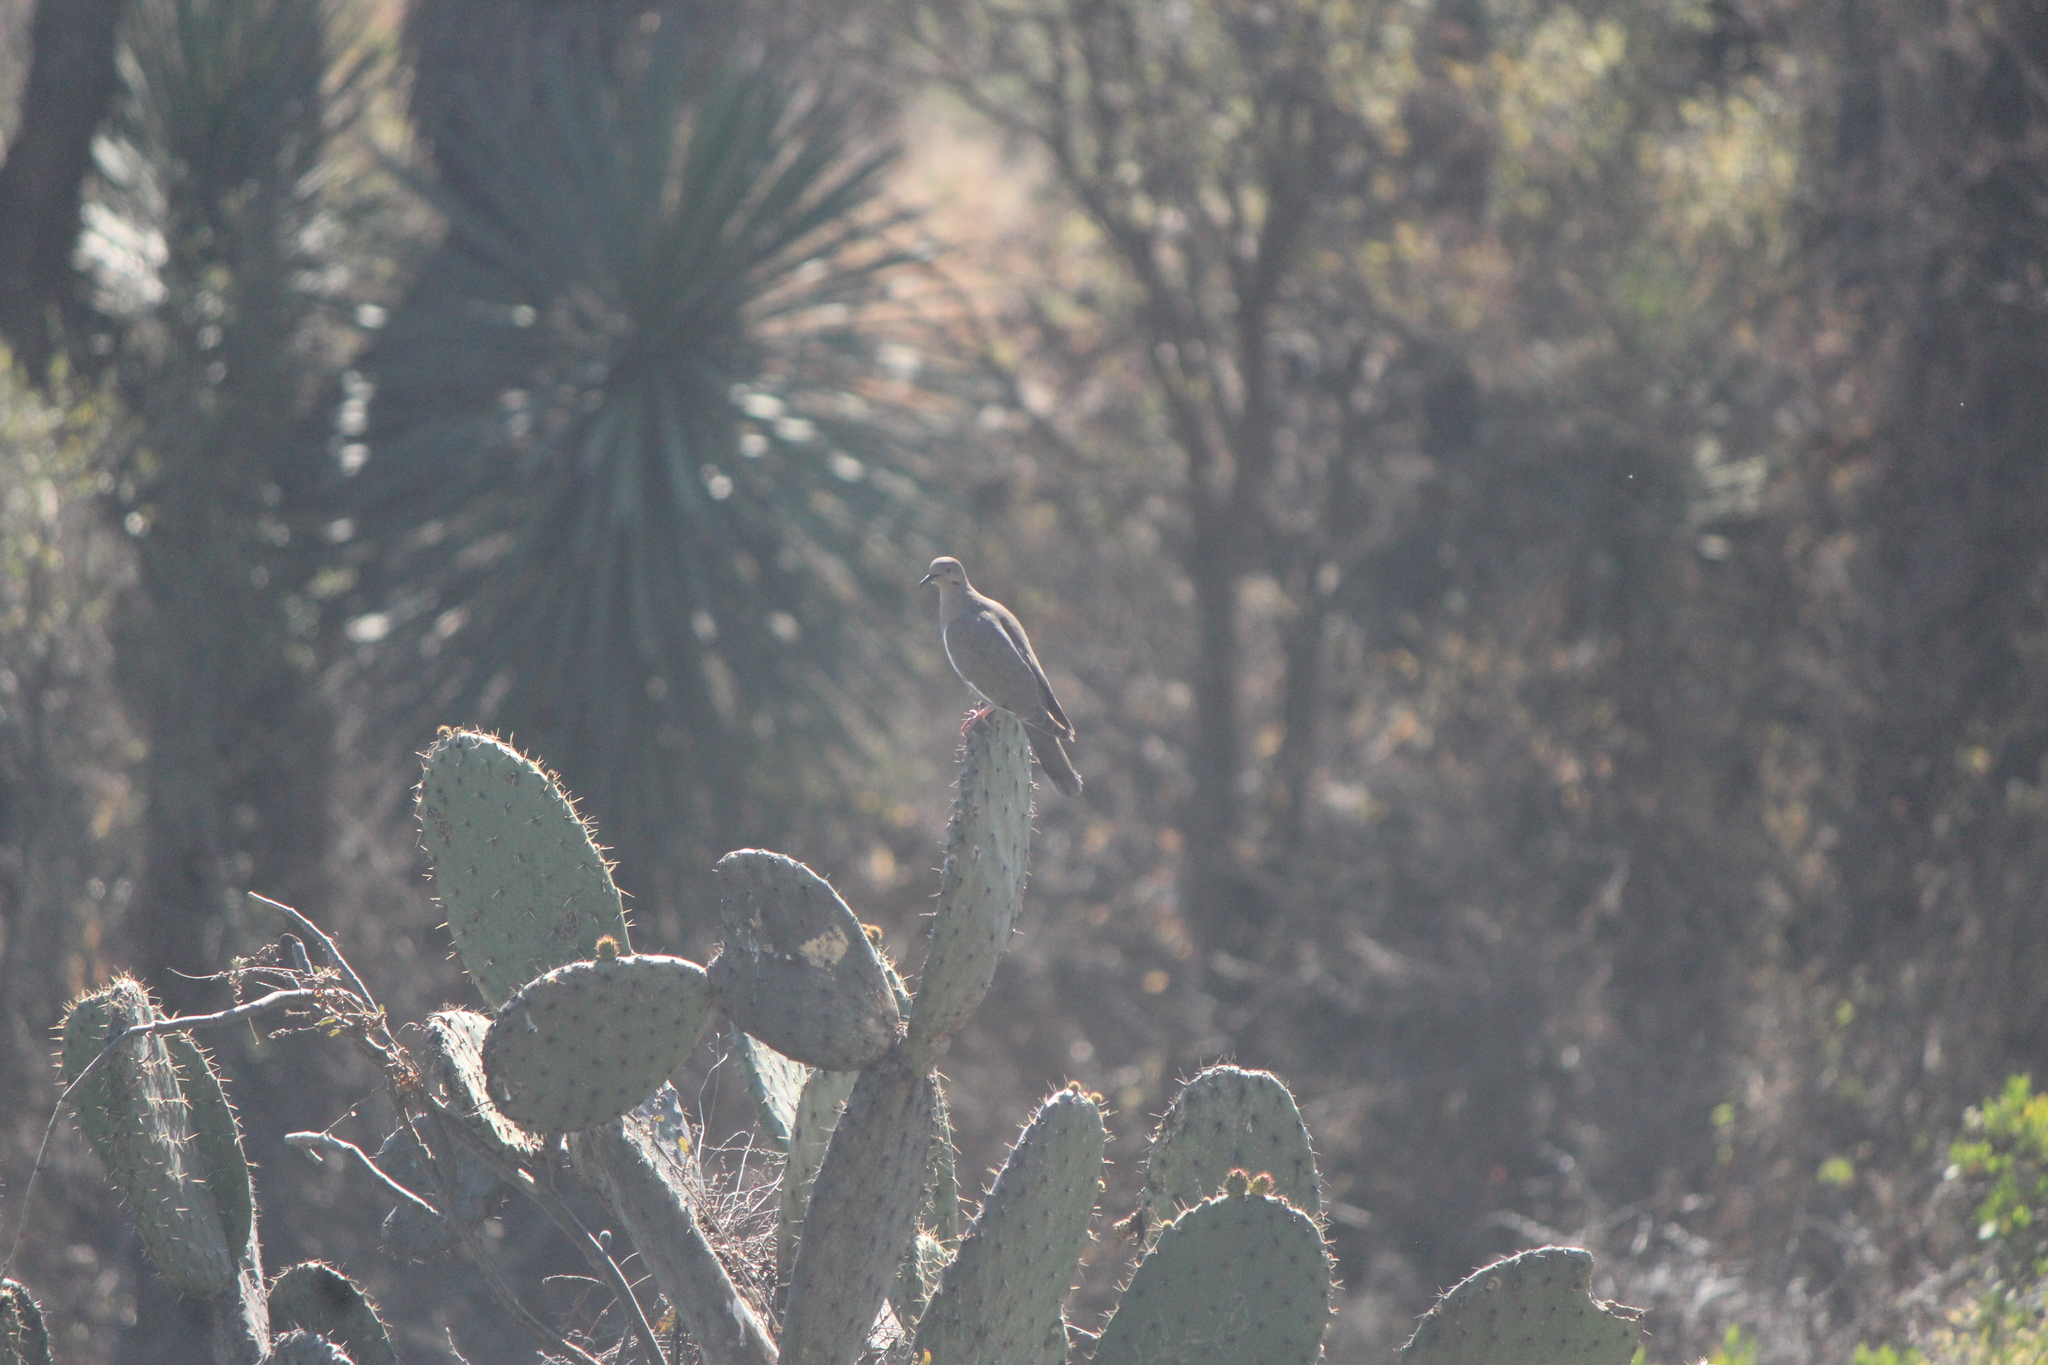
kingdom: Animalia
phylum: Chordata
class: Aves
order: Columbiformes
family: Columbidae
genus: Zenaida
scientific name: Zenaida asiatica
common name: White-winged dove
